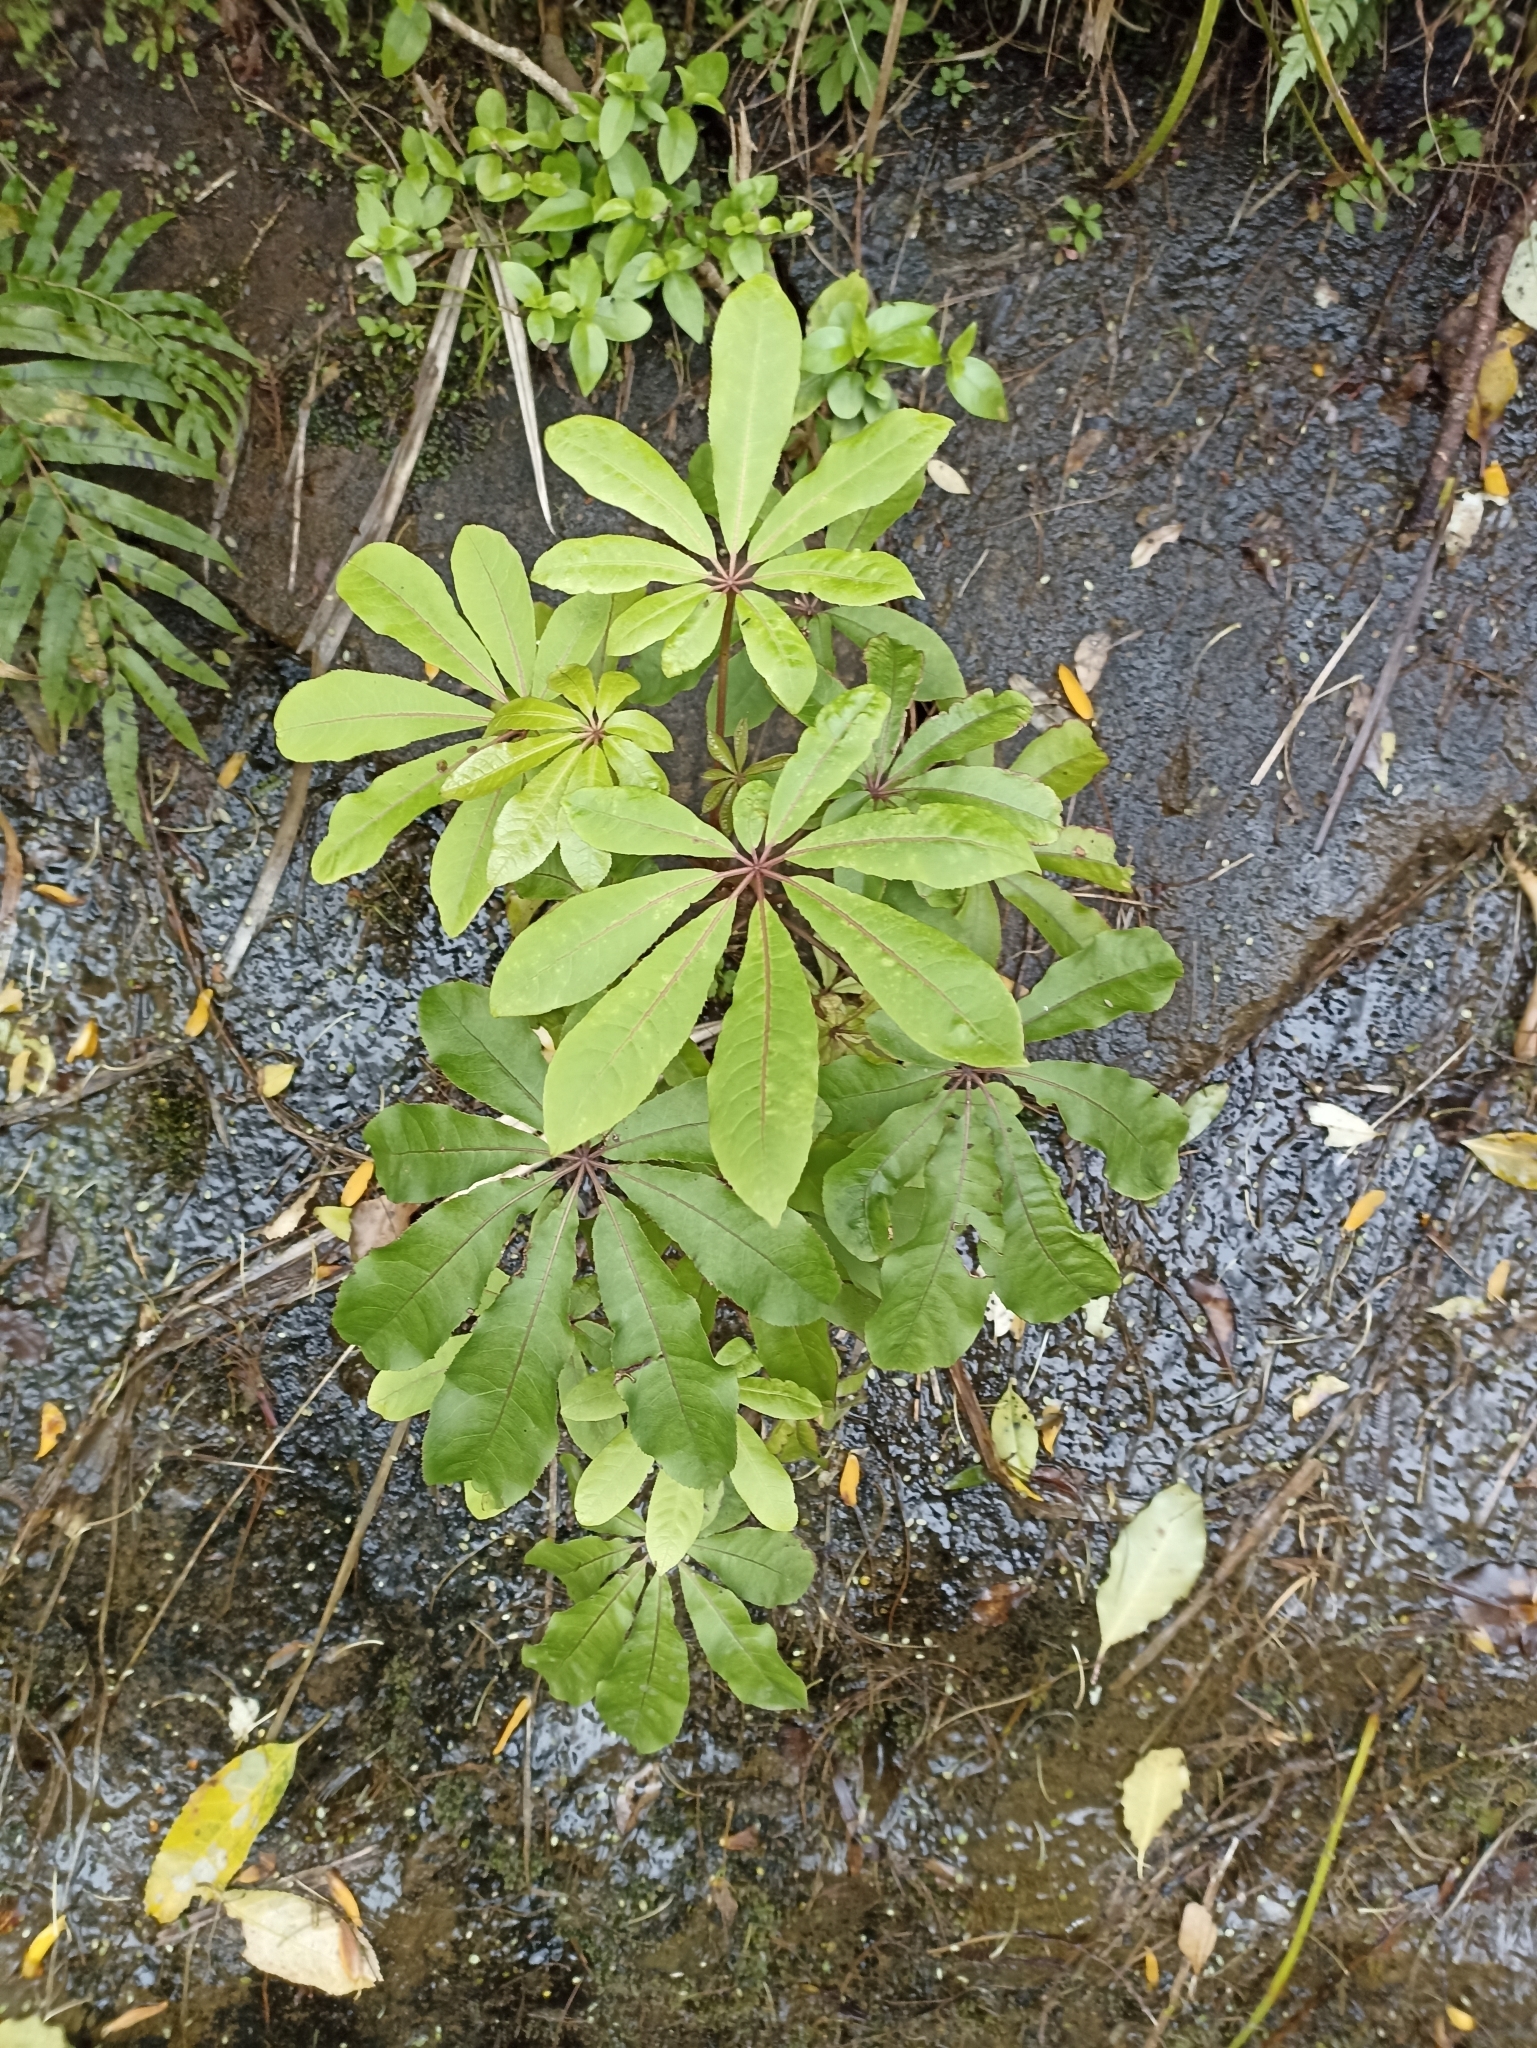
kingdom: Plantae
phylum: Tracheophyta
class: Magnoliopsida
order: Apiales
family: Araliaceae
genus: Schefflera
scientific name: Schefflera digitata
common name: Pate
